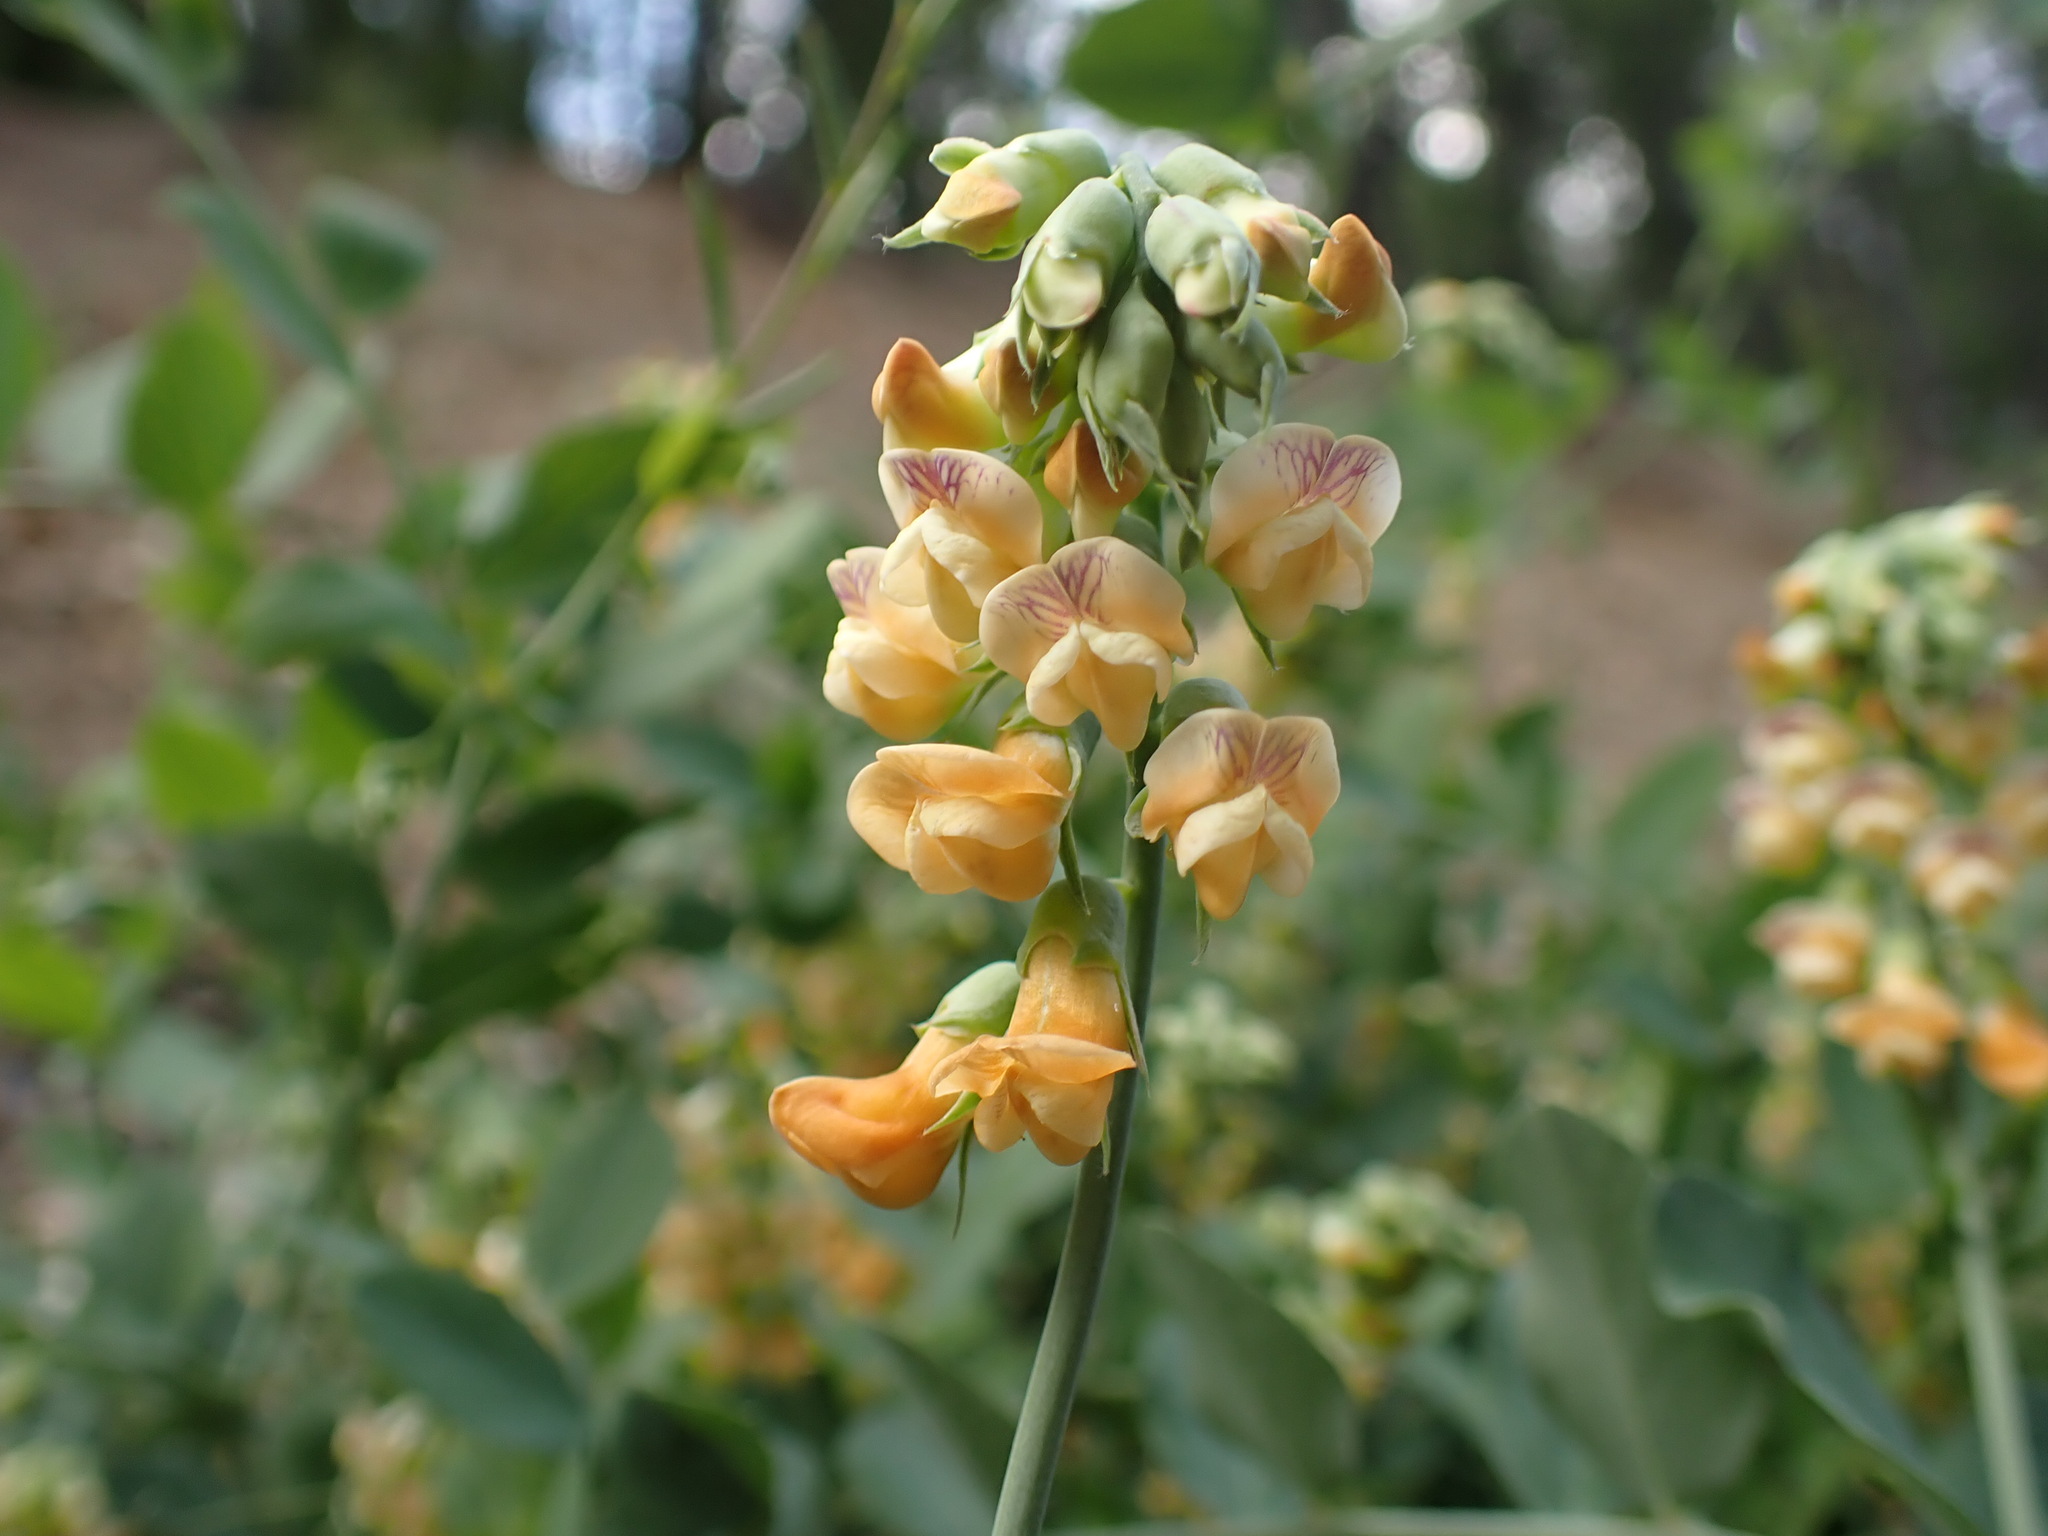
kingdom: Plantae
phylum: Tracheophyta
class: Magnoliopsida
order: Fabales
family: Fabaceae
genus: Lathyrus
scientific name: Lathyrus sulphureus
